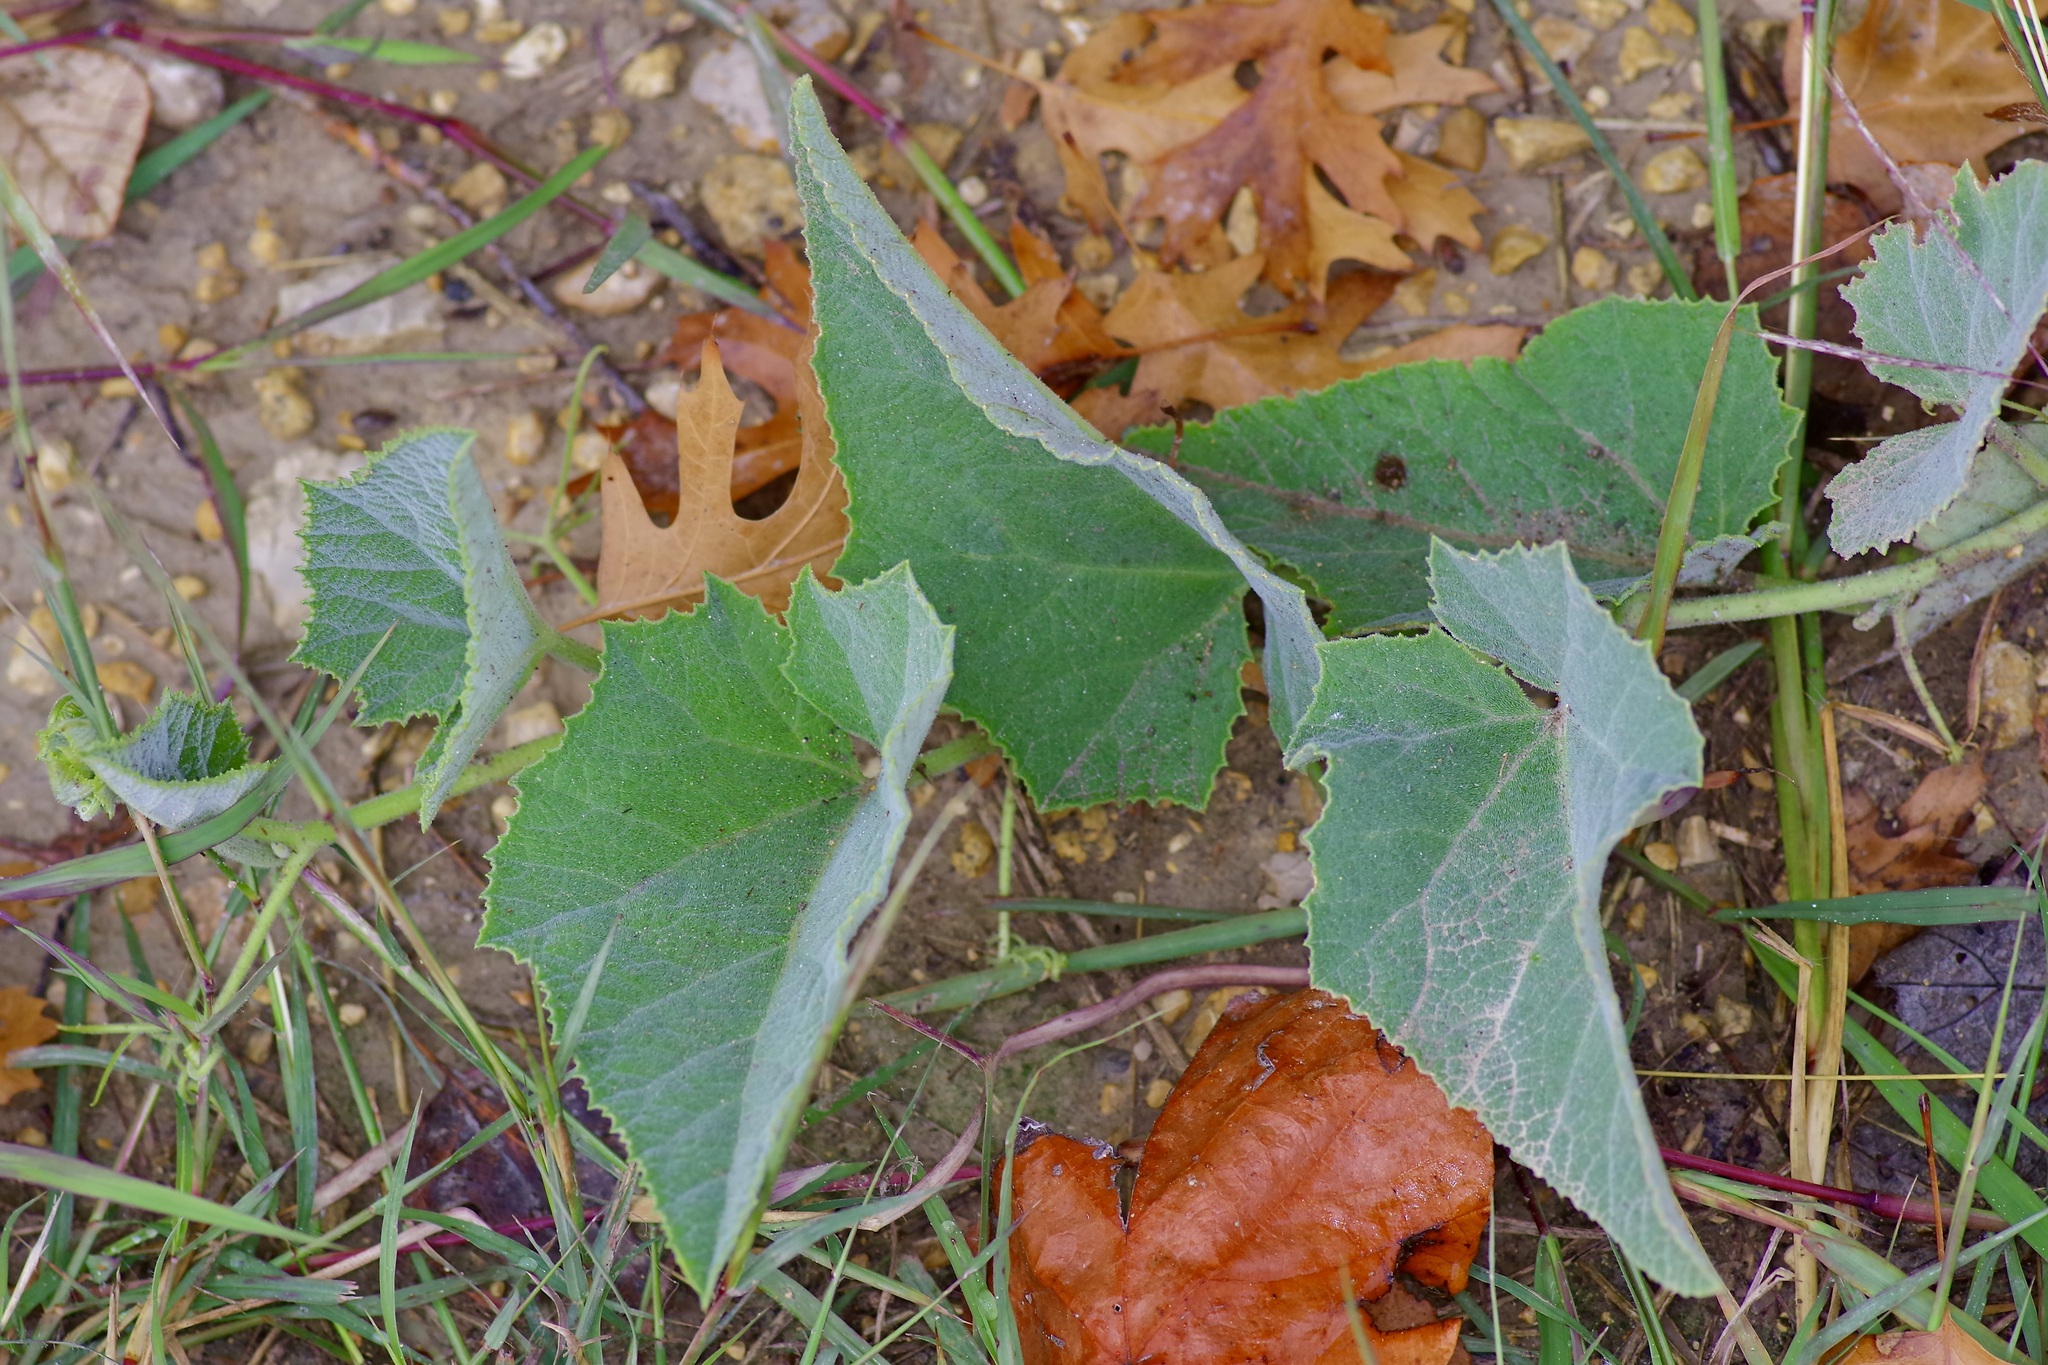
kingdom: Plantae
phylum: Tracheophyta
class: Magnoliopsida
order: Cucurbitales
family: Cucurbitaceae
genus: Cucurbita
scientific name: Cucurbita foetidissima
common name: Buffalo gourd
